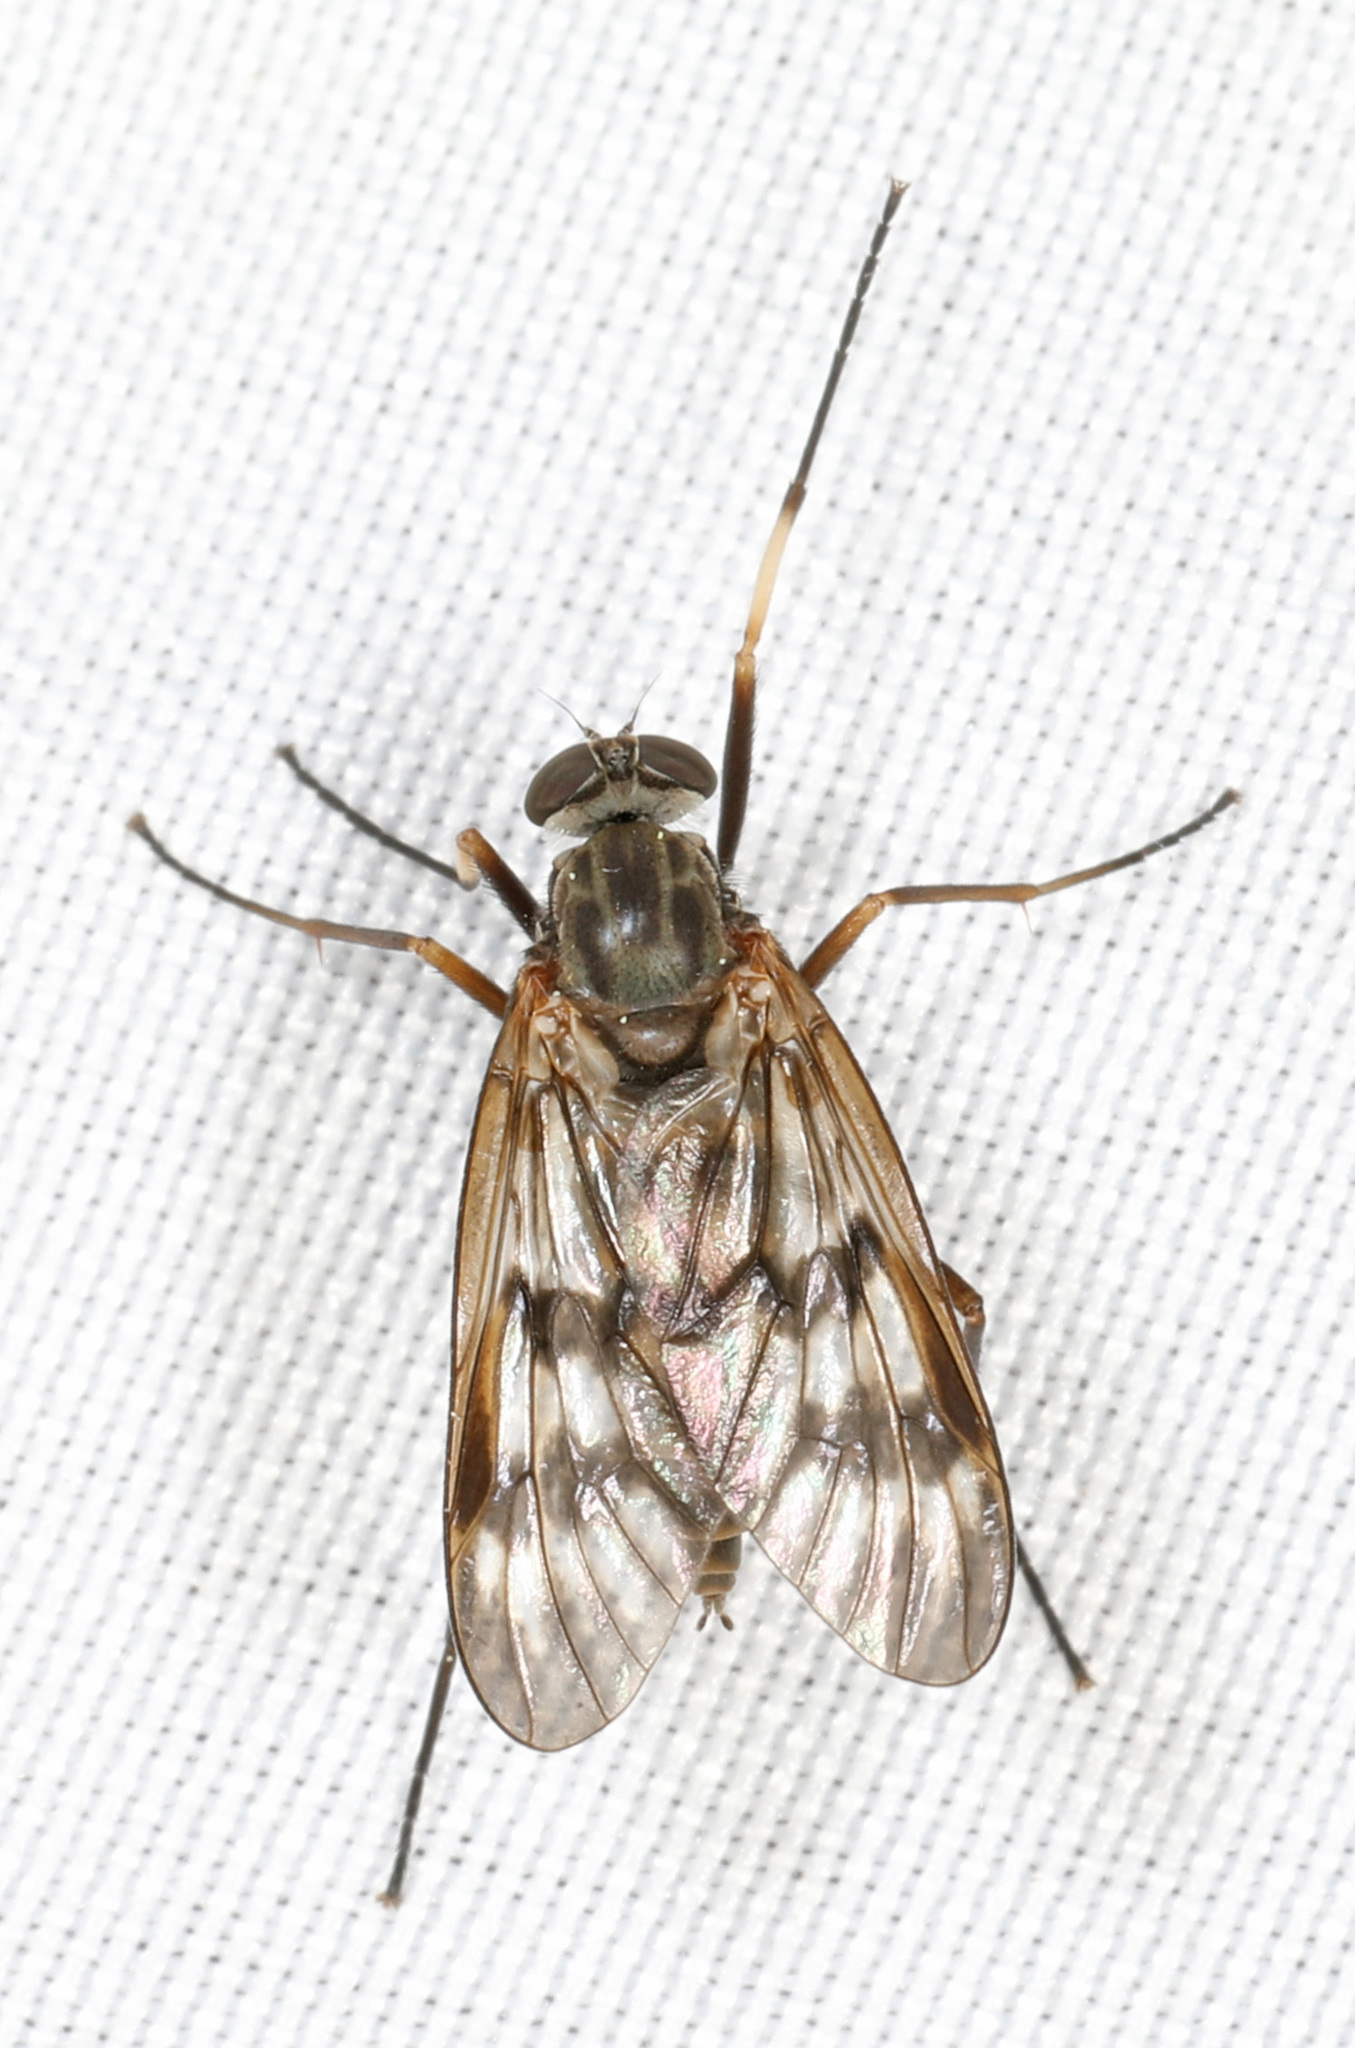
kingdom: Animalia
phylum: Arthropoda
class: Insecta
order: Diptera
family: Rhagionidae
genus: Rhagio
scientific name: Rhagio mystaceus
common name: Common snipe fly
